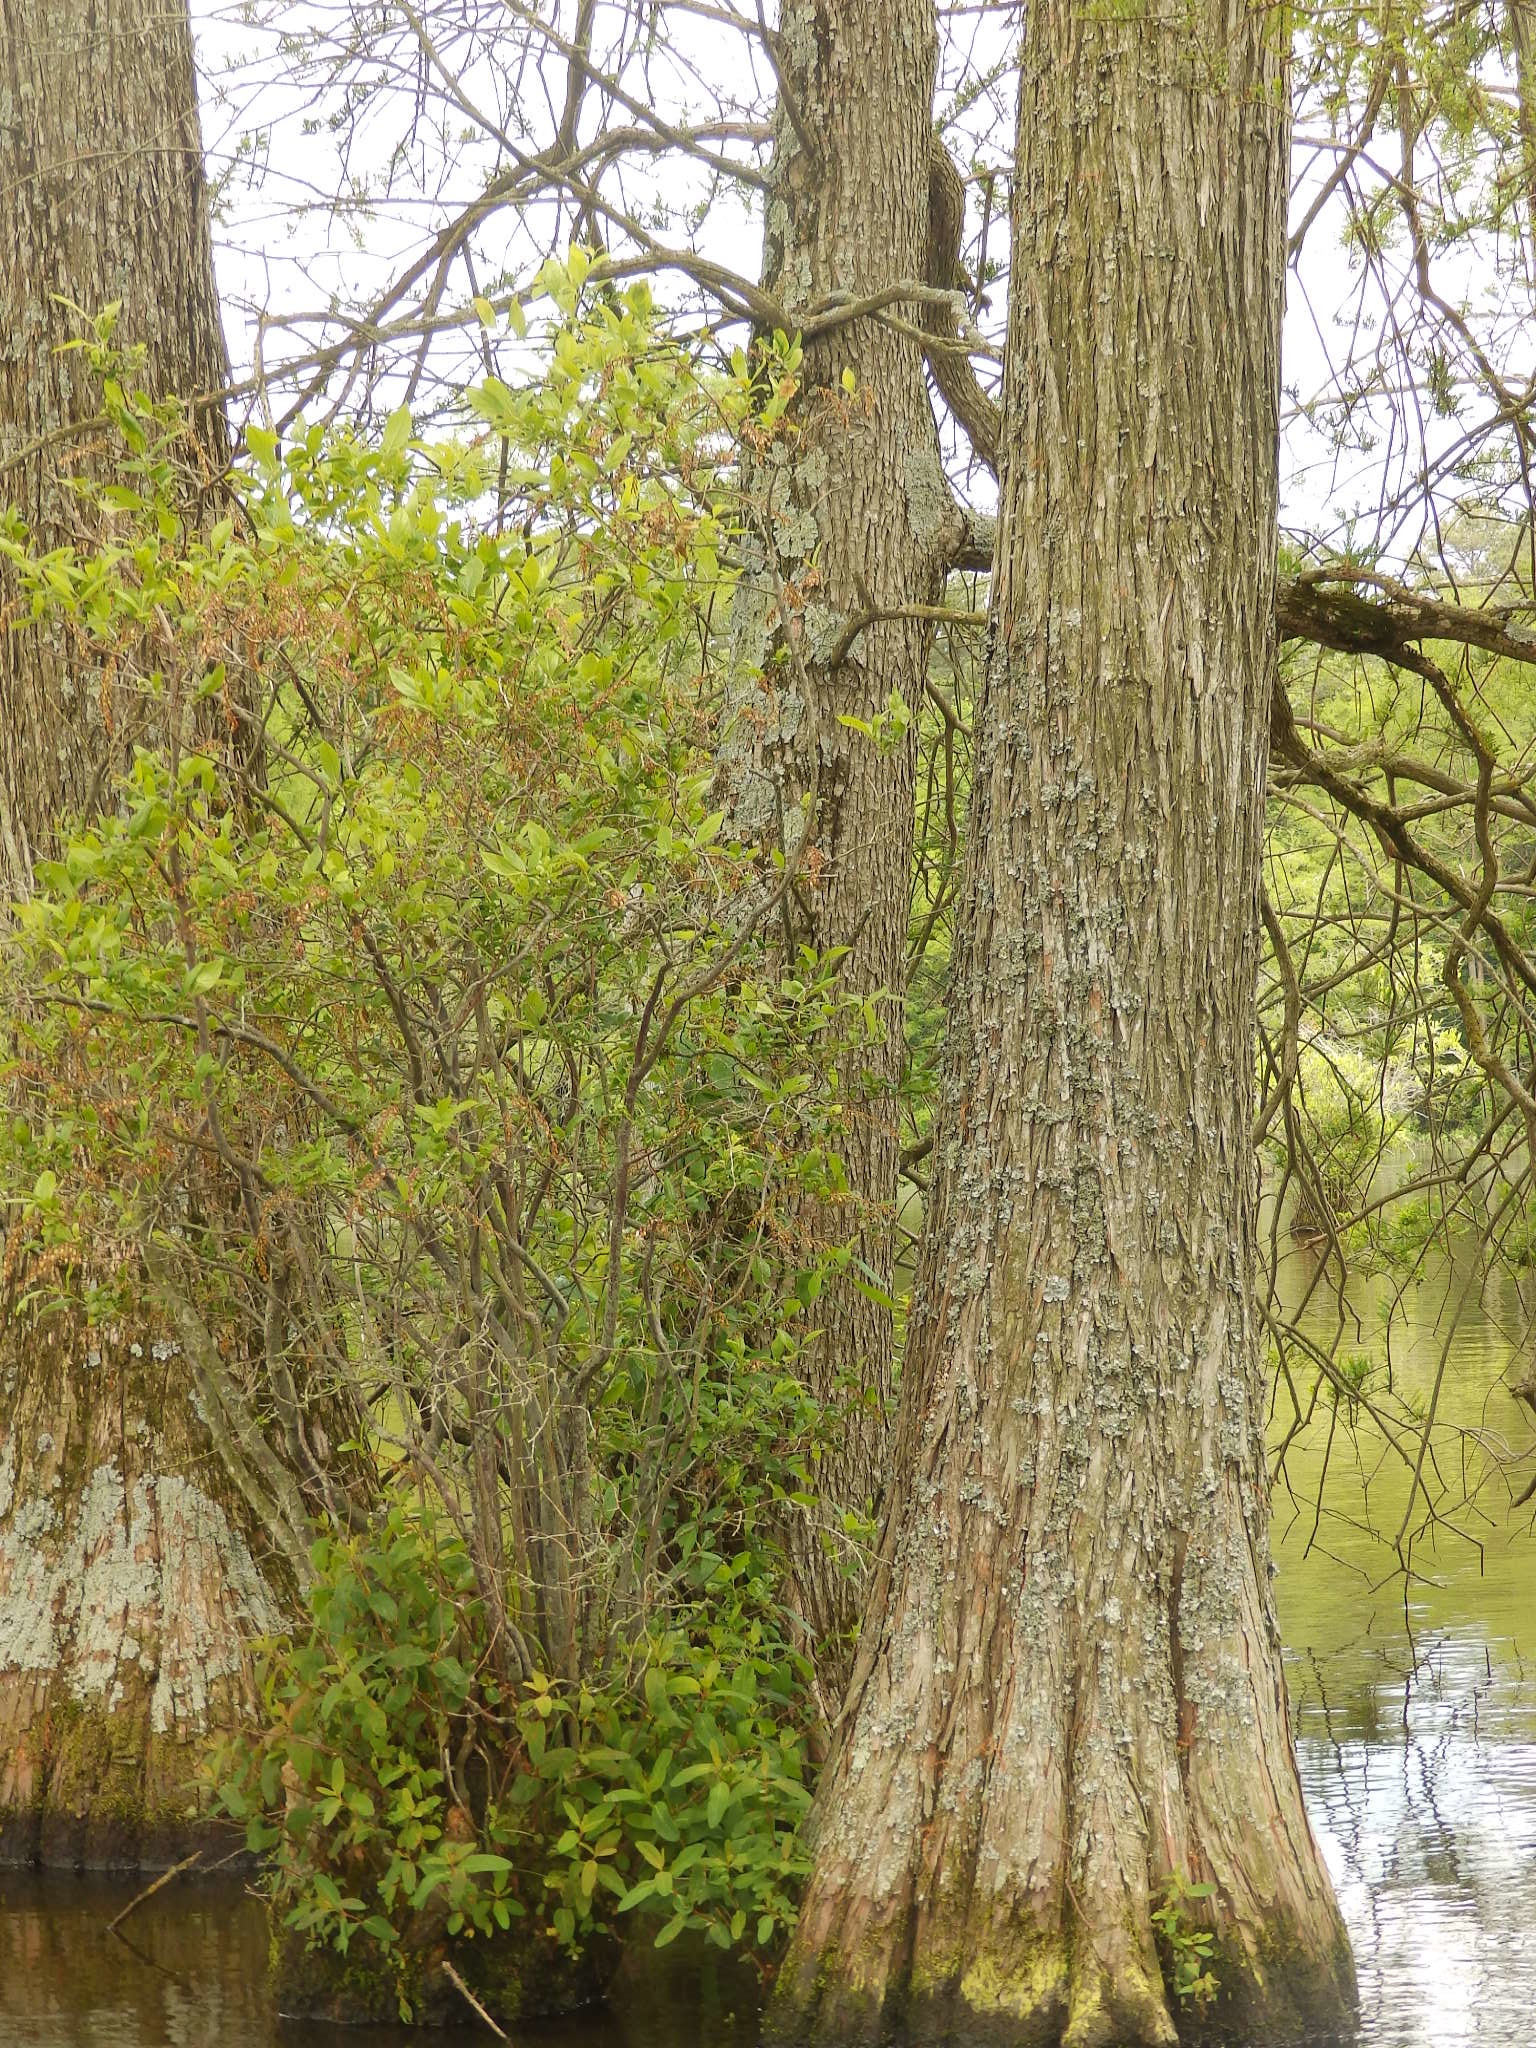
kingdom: Plantae
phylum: Tracheophyta
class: Magnoliopsida
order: Ericales
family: Ericaceae
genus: Eubotrys
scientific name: Eubotrys racemosa
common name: Fetterbush
